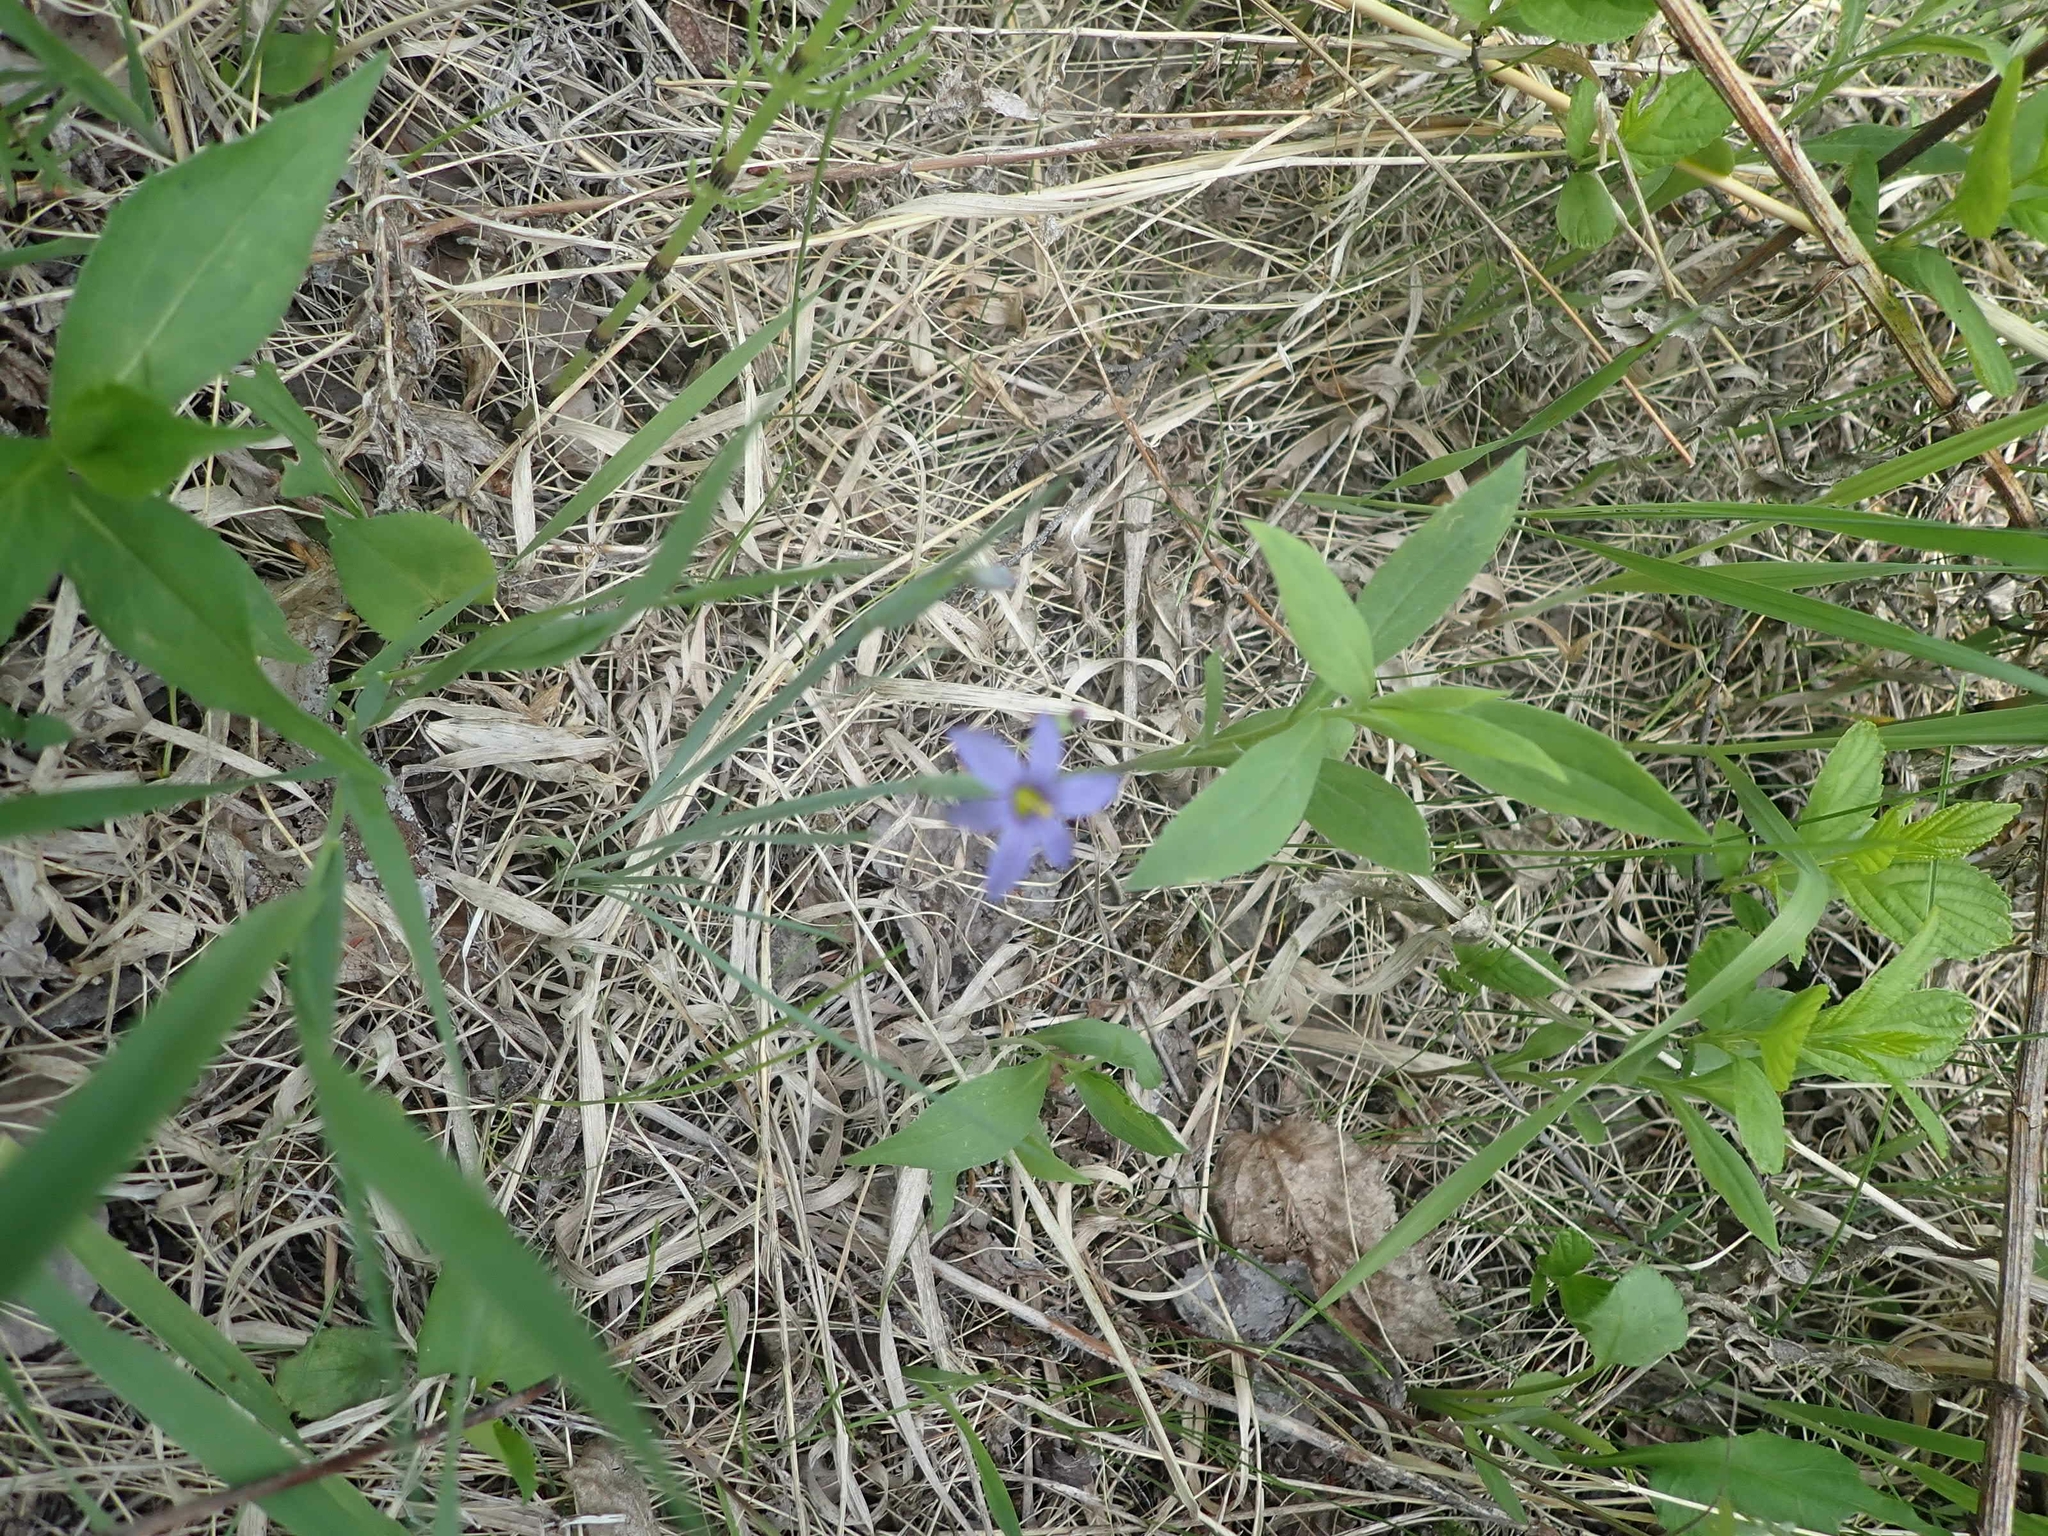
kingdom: Plantae
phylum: Tracheophyta
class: Liliopsida
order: Asparagales
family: Iridaceae
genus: Sisyrinchium
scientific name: Sisyrinchium montanum
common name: American blue-eyed-grass
